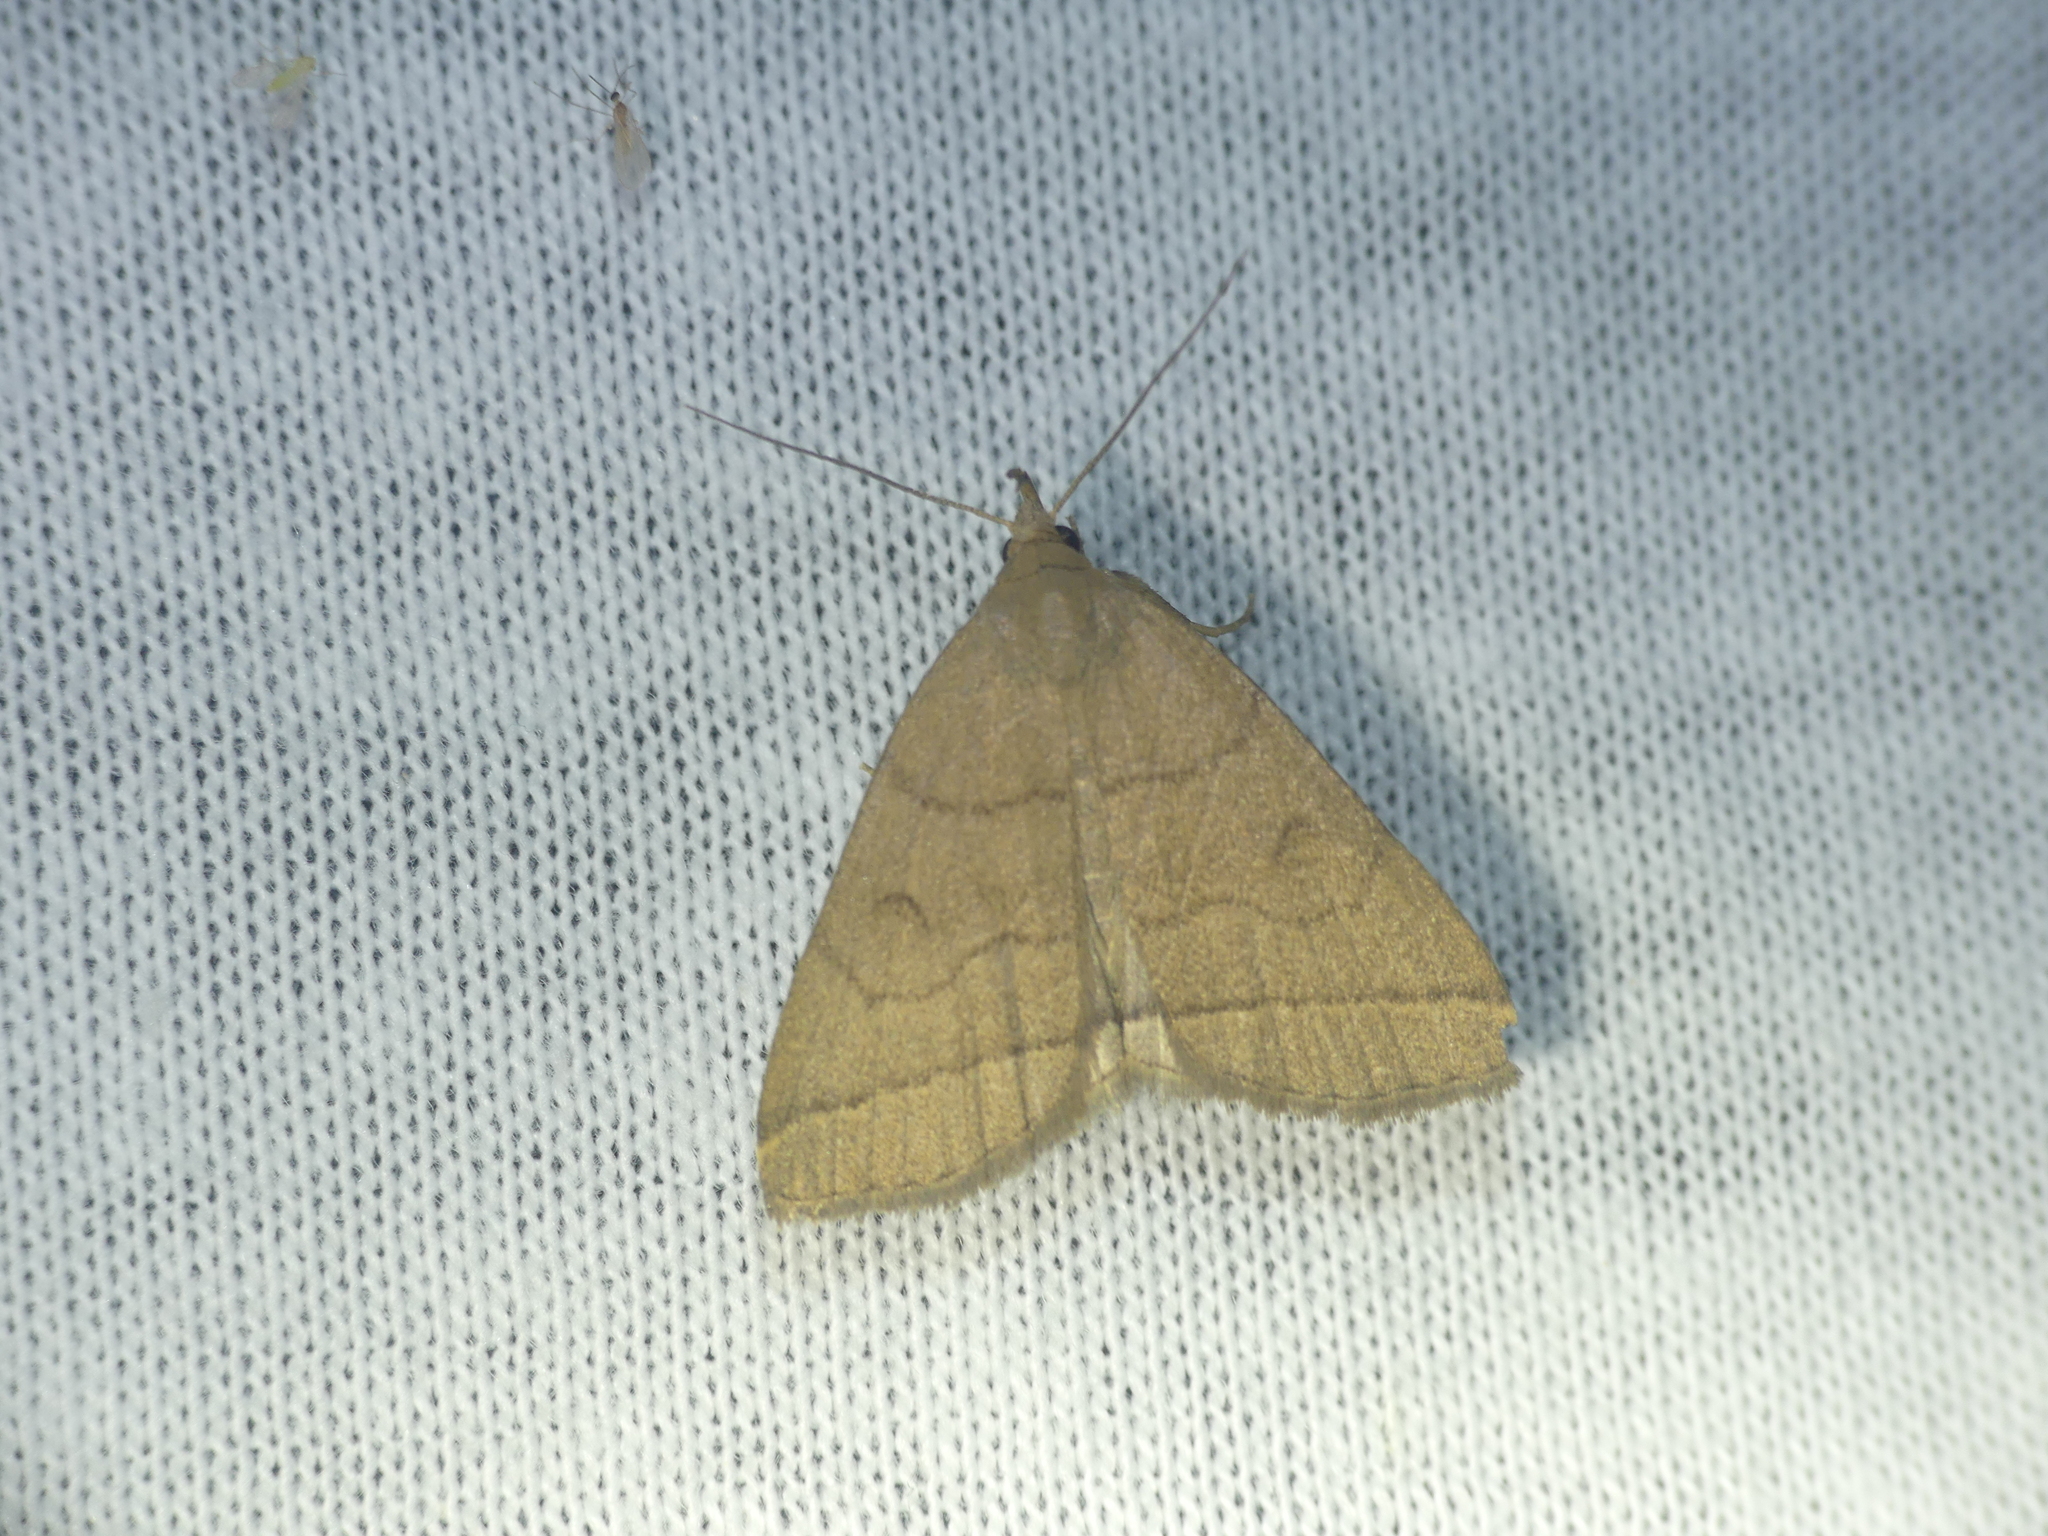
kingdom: Animalia
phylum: Arthropoda
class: Insecta
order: Lepidoptera
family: Erebidae
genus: Herminia
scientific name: Herminia tarsipennalis
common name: Fan-foot
